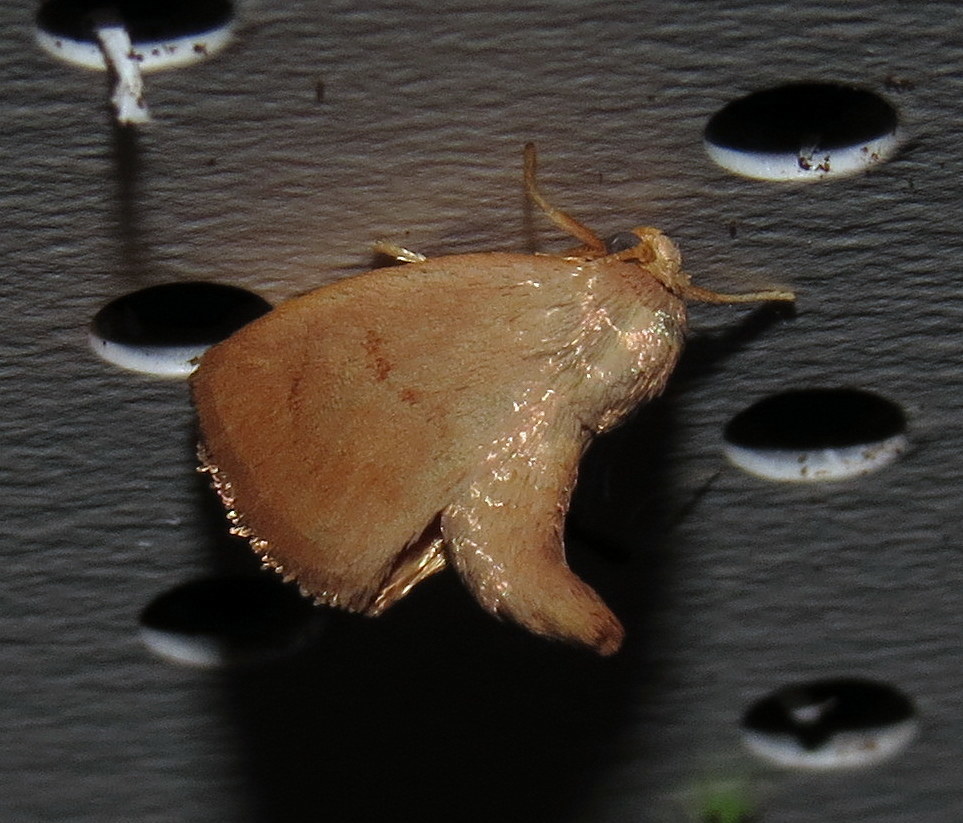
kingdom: Animalia
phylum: Arthropoda
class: Insecta
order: Lepidoptera
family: Limacodidae
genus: Tortricidia
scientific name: Tortricidia pallida
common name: Red-crossed button slug moth
